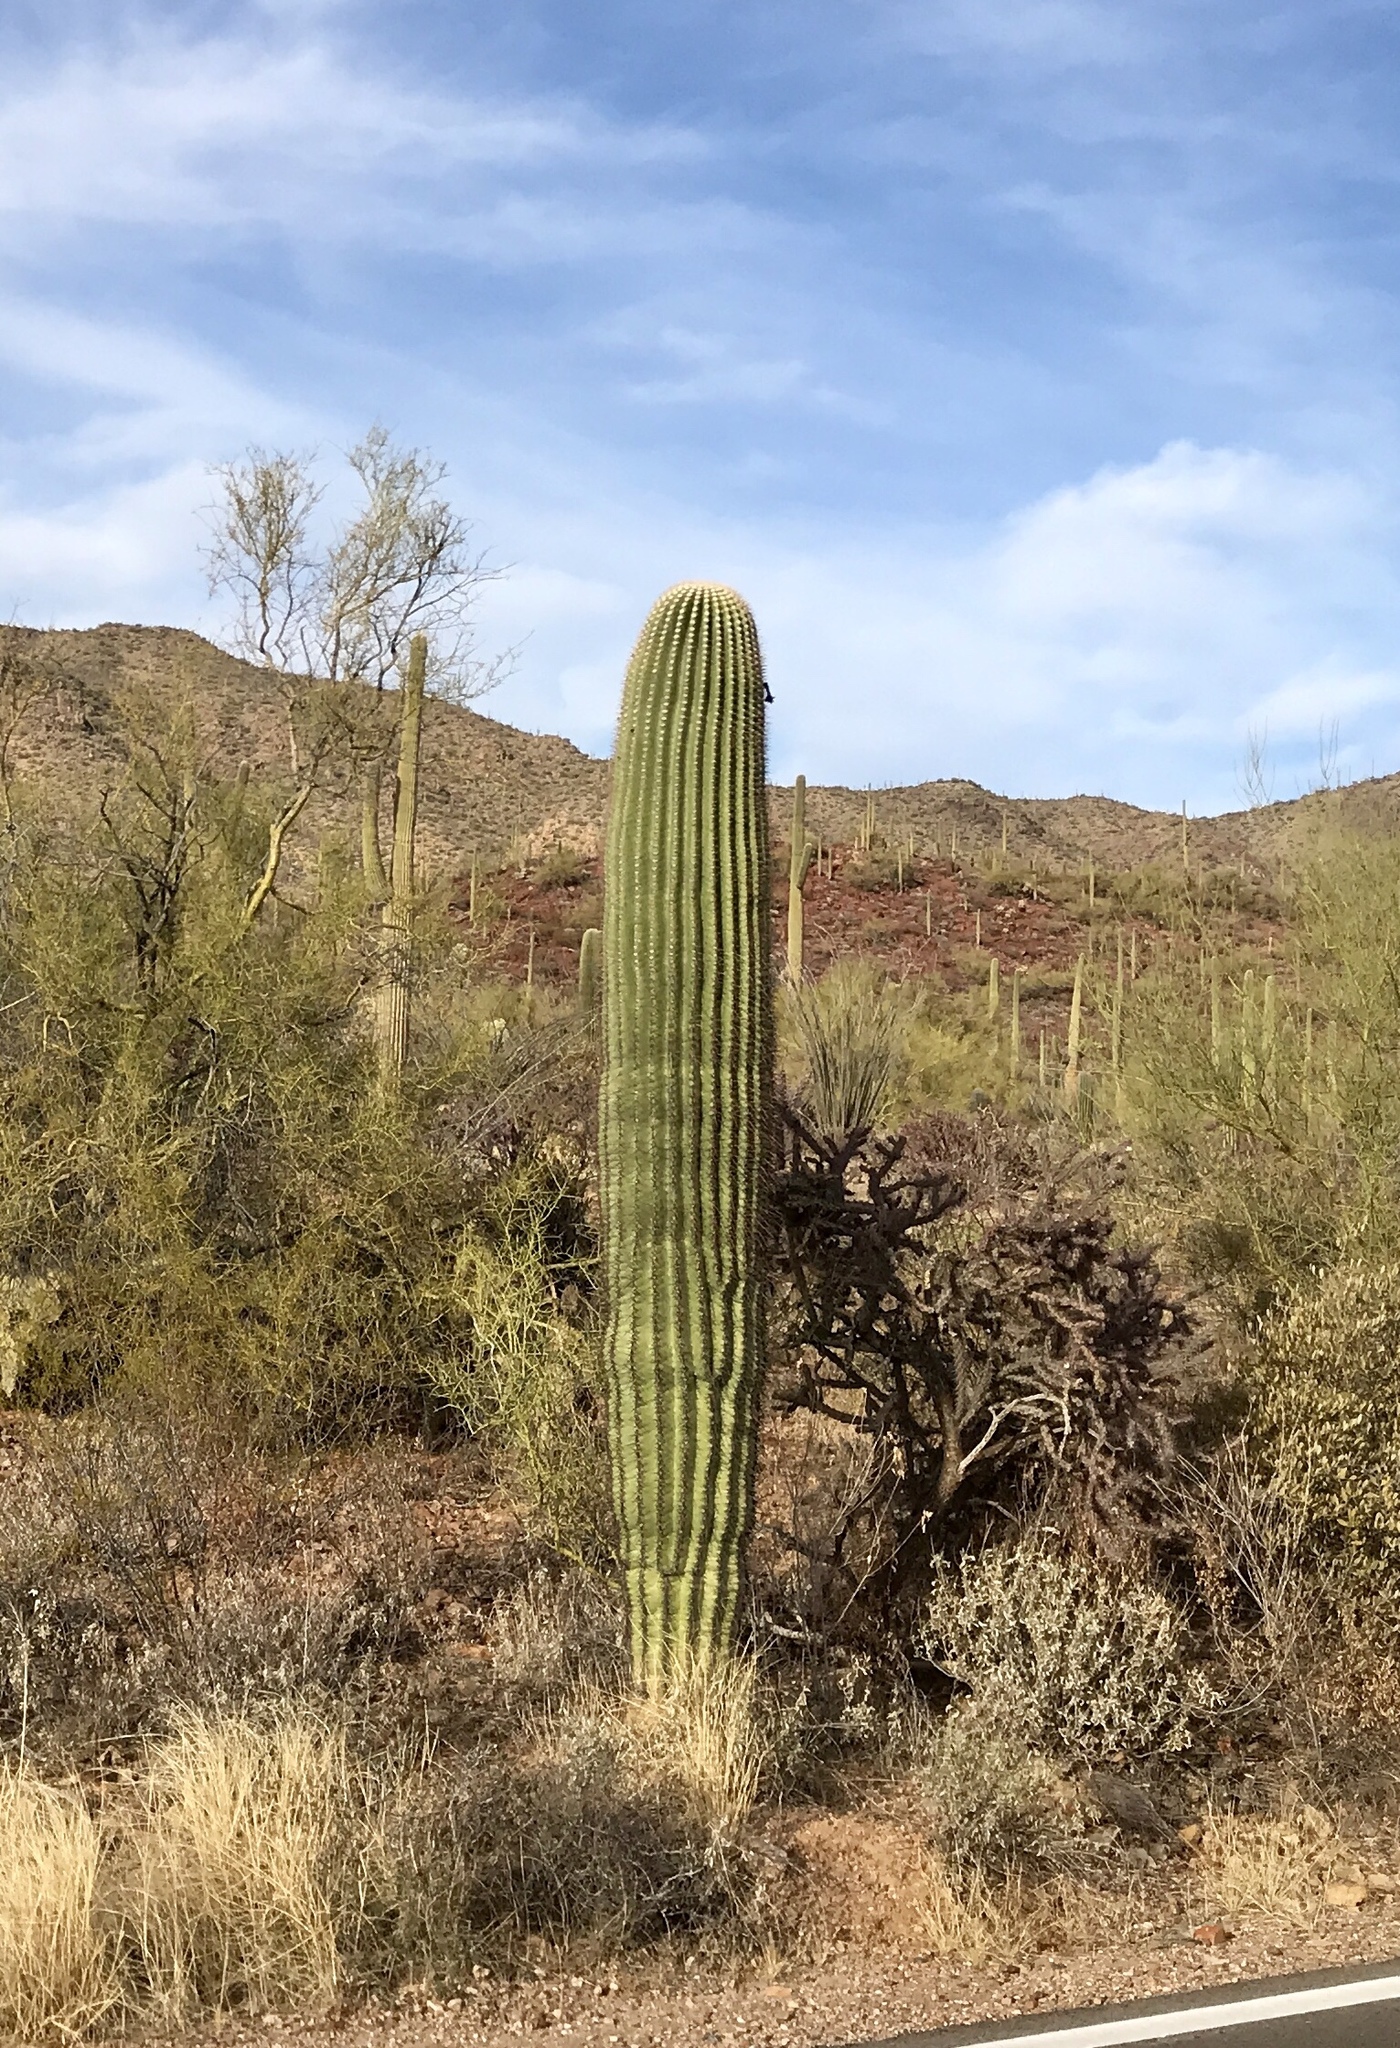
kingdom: Plantae
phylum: Tracheophyta
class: Magnoliopsida
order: Caryophyllales
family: Cactaceae
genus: Carnegiea
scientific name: Carnegiea gigantea
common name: Saguaro
